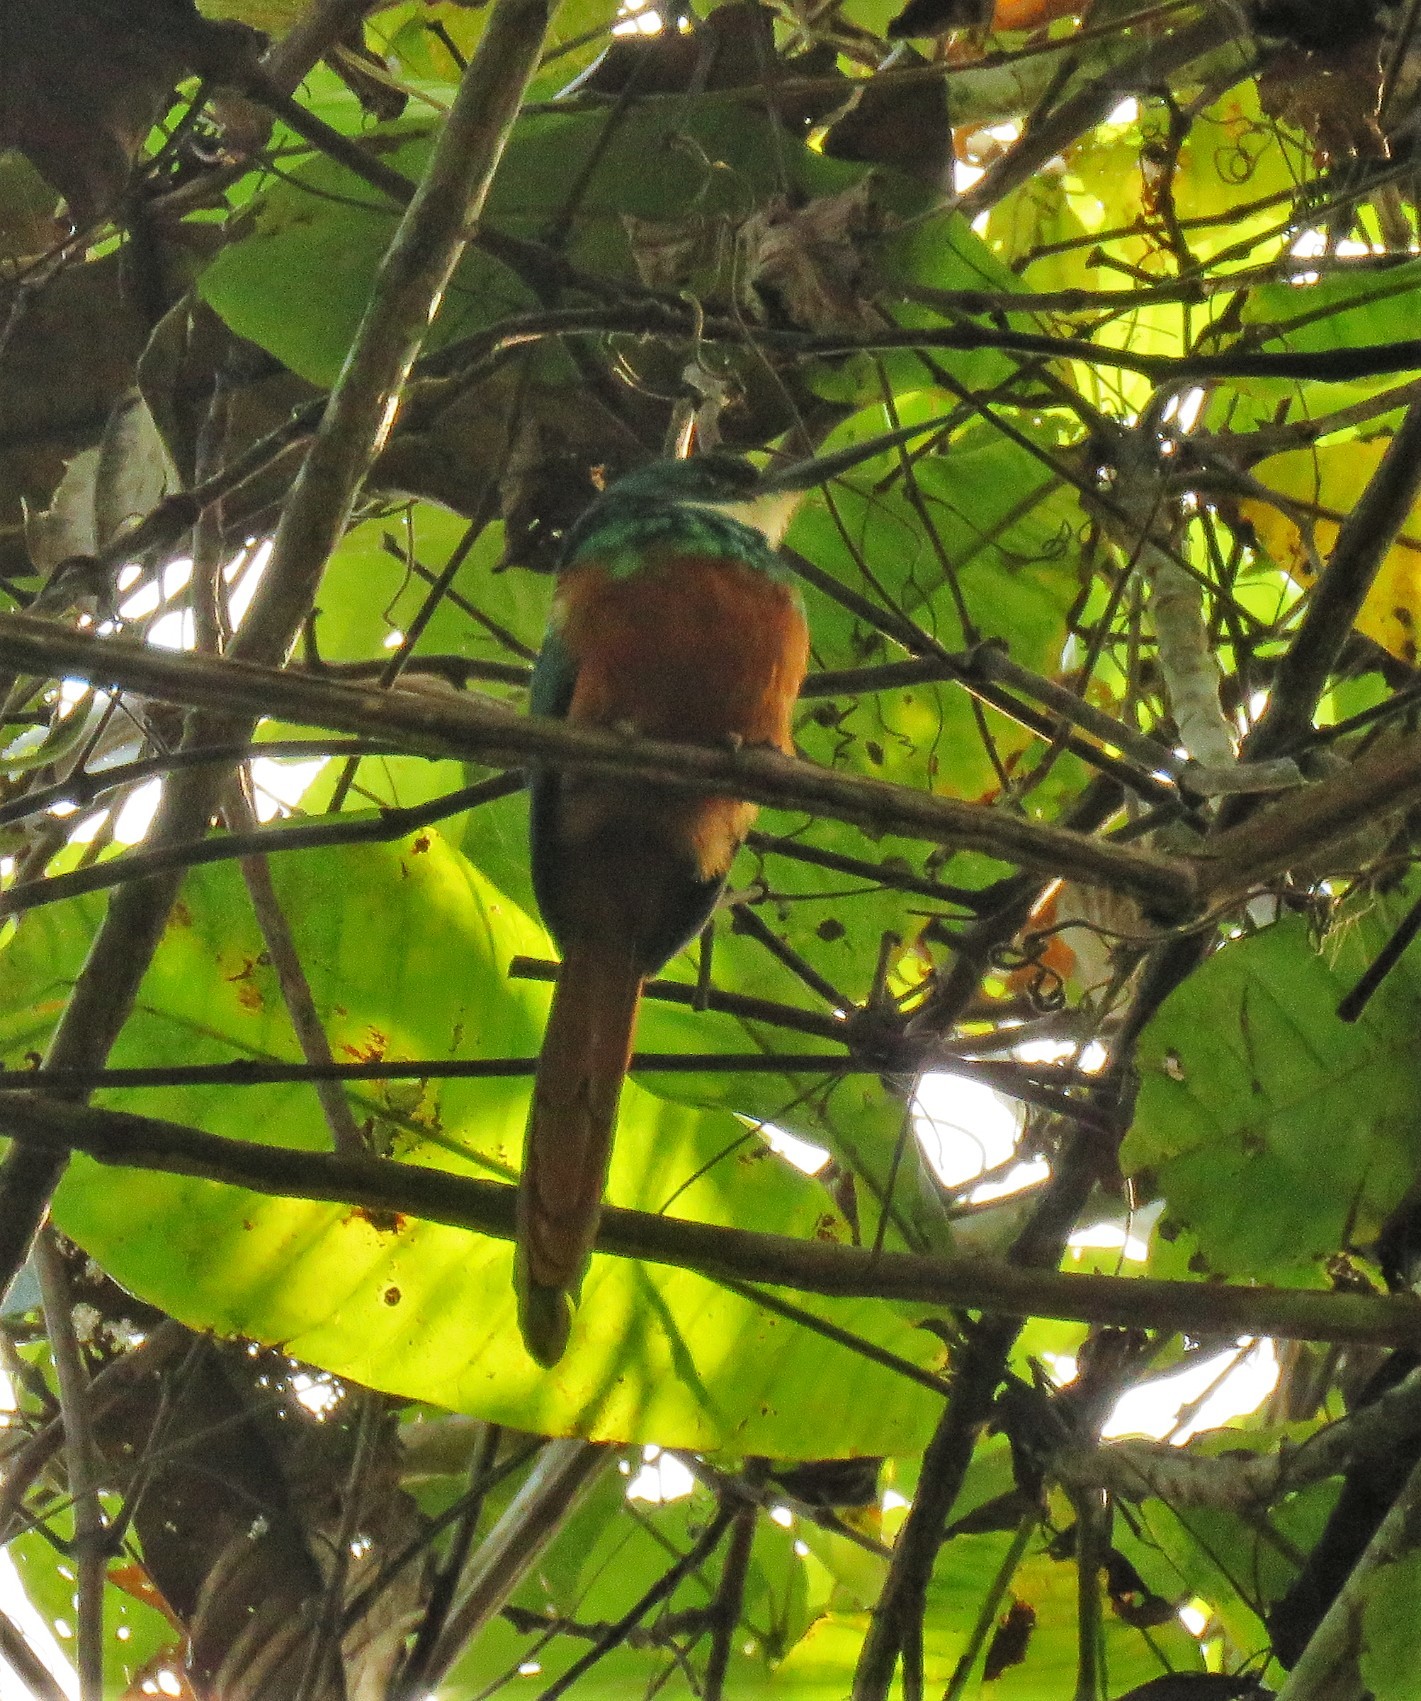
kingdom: Animalia
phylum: Chordata
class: Aves
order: Piciformes
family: Galbulidae
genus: Galbula
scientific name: Galbula ruficauda
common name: Rufous-tailed jacamar
